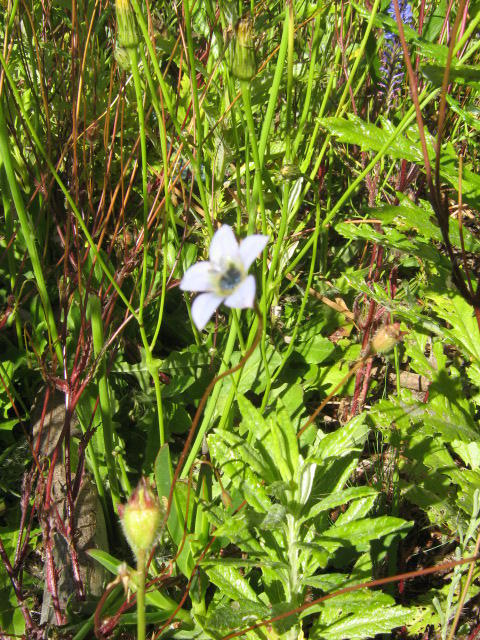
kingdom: Plantae
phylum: Tracheophyta
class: Magnoliopsida
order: Asterales
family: Campanulaceae
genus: Wahlenbergia
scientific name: Wahlenbergia capensis
